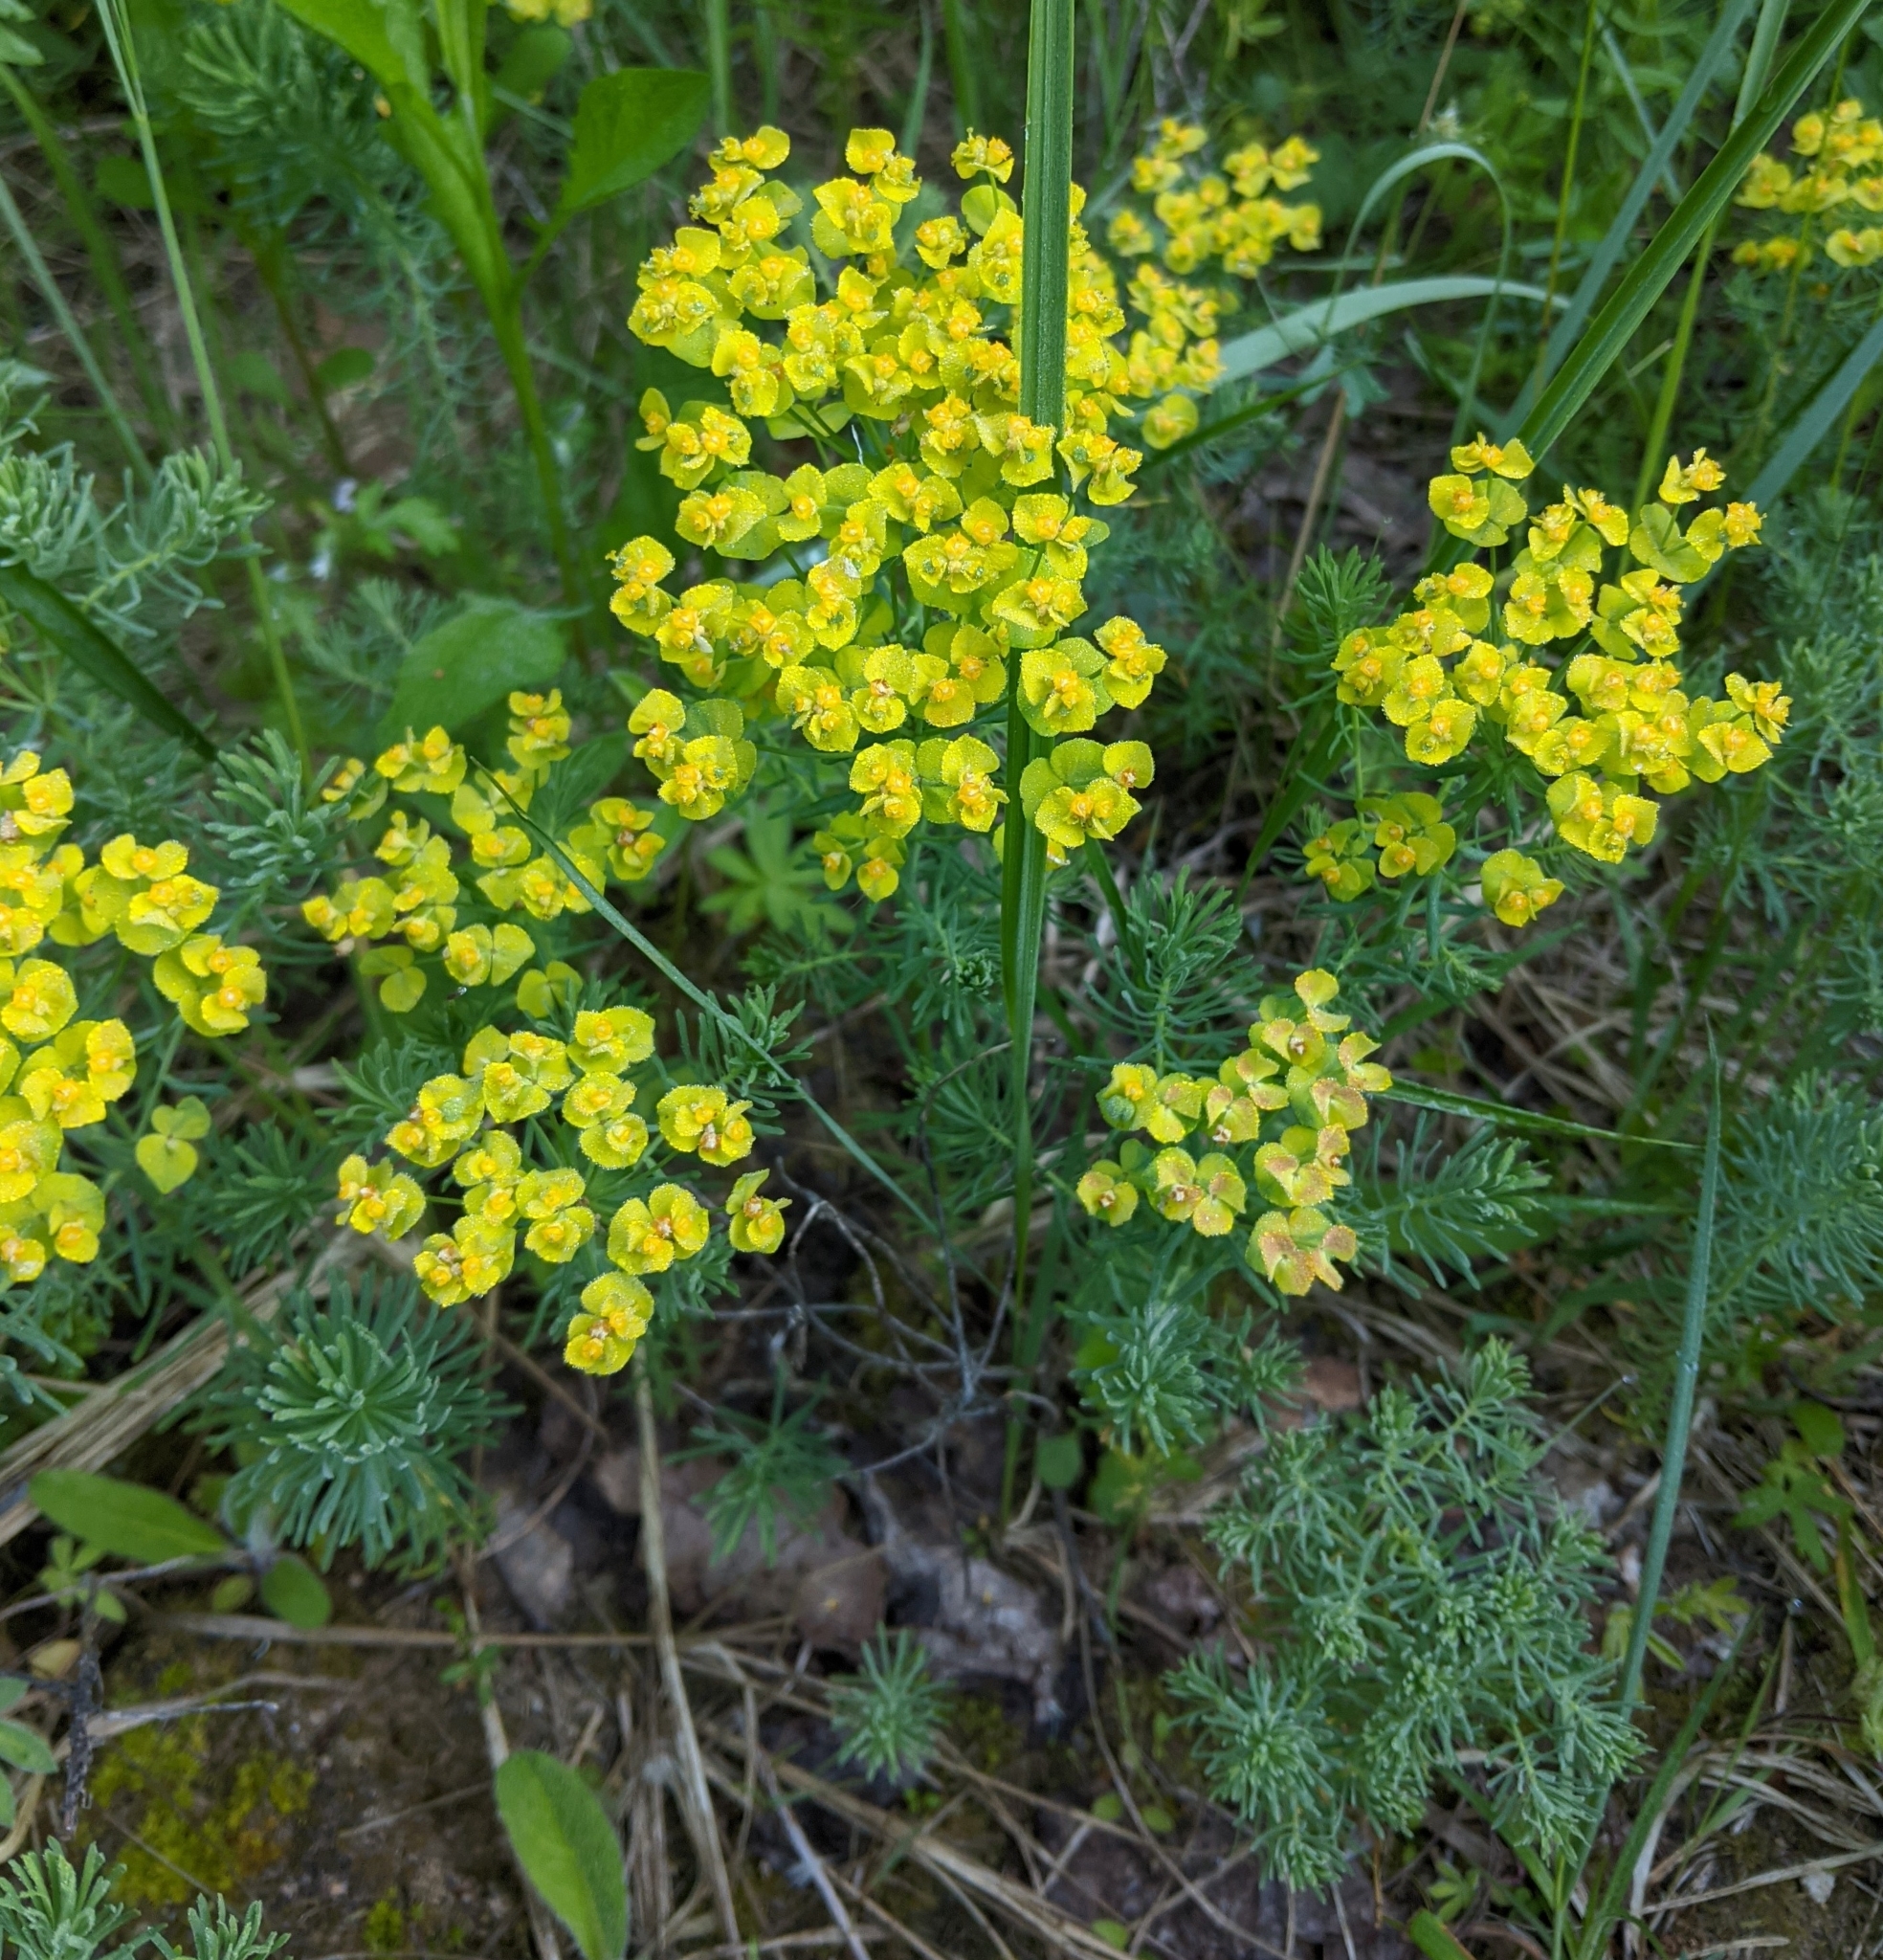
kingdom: Plantae
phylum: Tracheophyta
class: Magnoliopsida
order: Malpighiales
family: Euphorbiaceae
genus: Euphorbia
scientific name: Euphorbia cyparissias
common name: Cypress spurge
